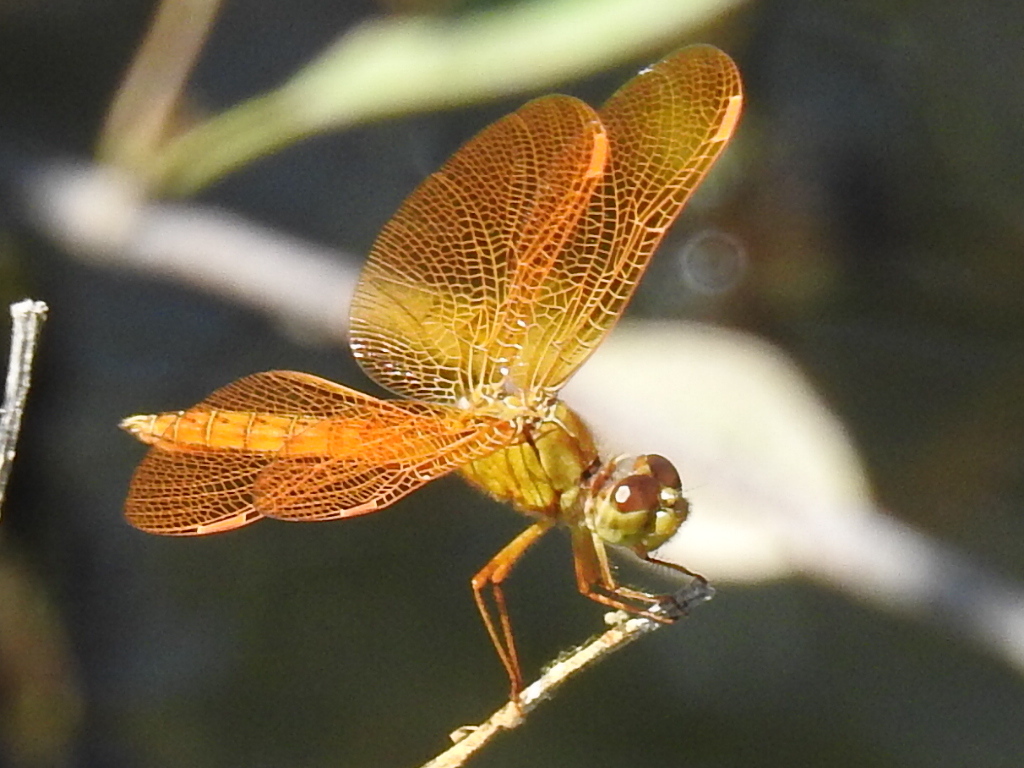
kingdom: Animalia
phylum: Arthropoda
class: Insecta
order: Odonata
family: Libellulidae
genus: Perithemis
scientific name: Perithemis intensa
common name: Mexican amberwing
